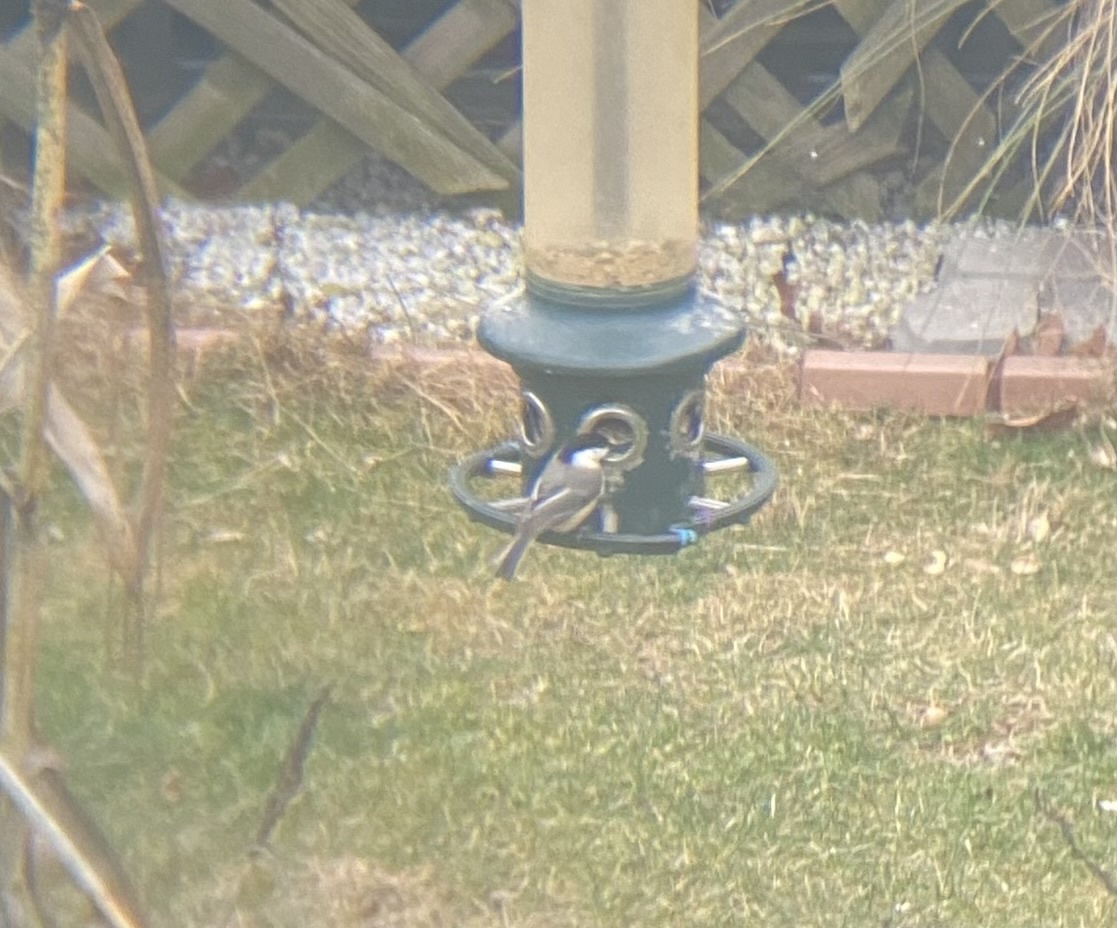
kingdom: Animalia
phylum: Chordata
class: Aves
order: Passeriformes
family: Paridae
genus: Poecile
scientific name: Poecile atricapillus
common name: Black-capped chickadee
